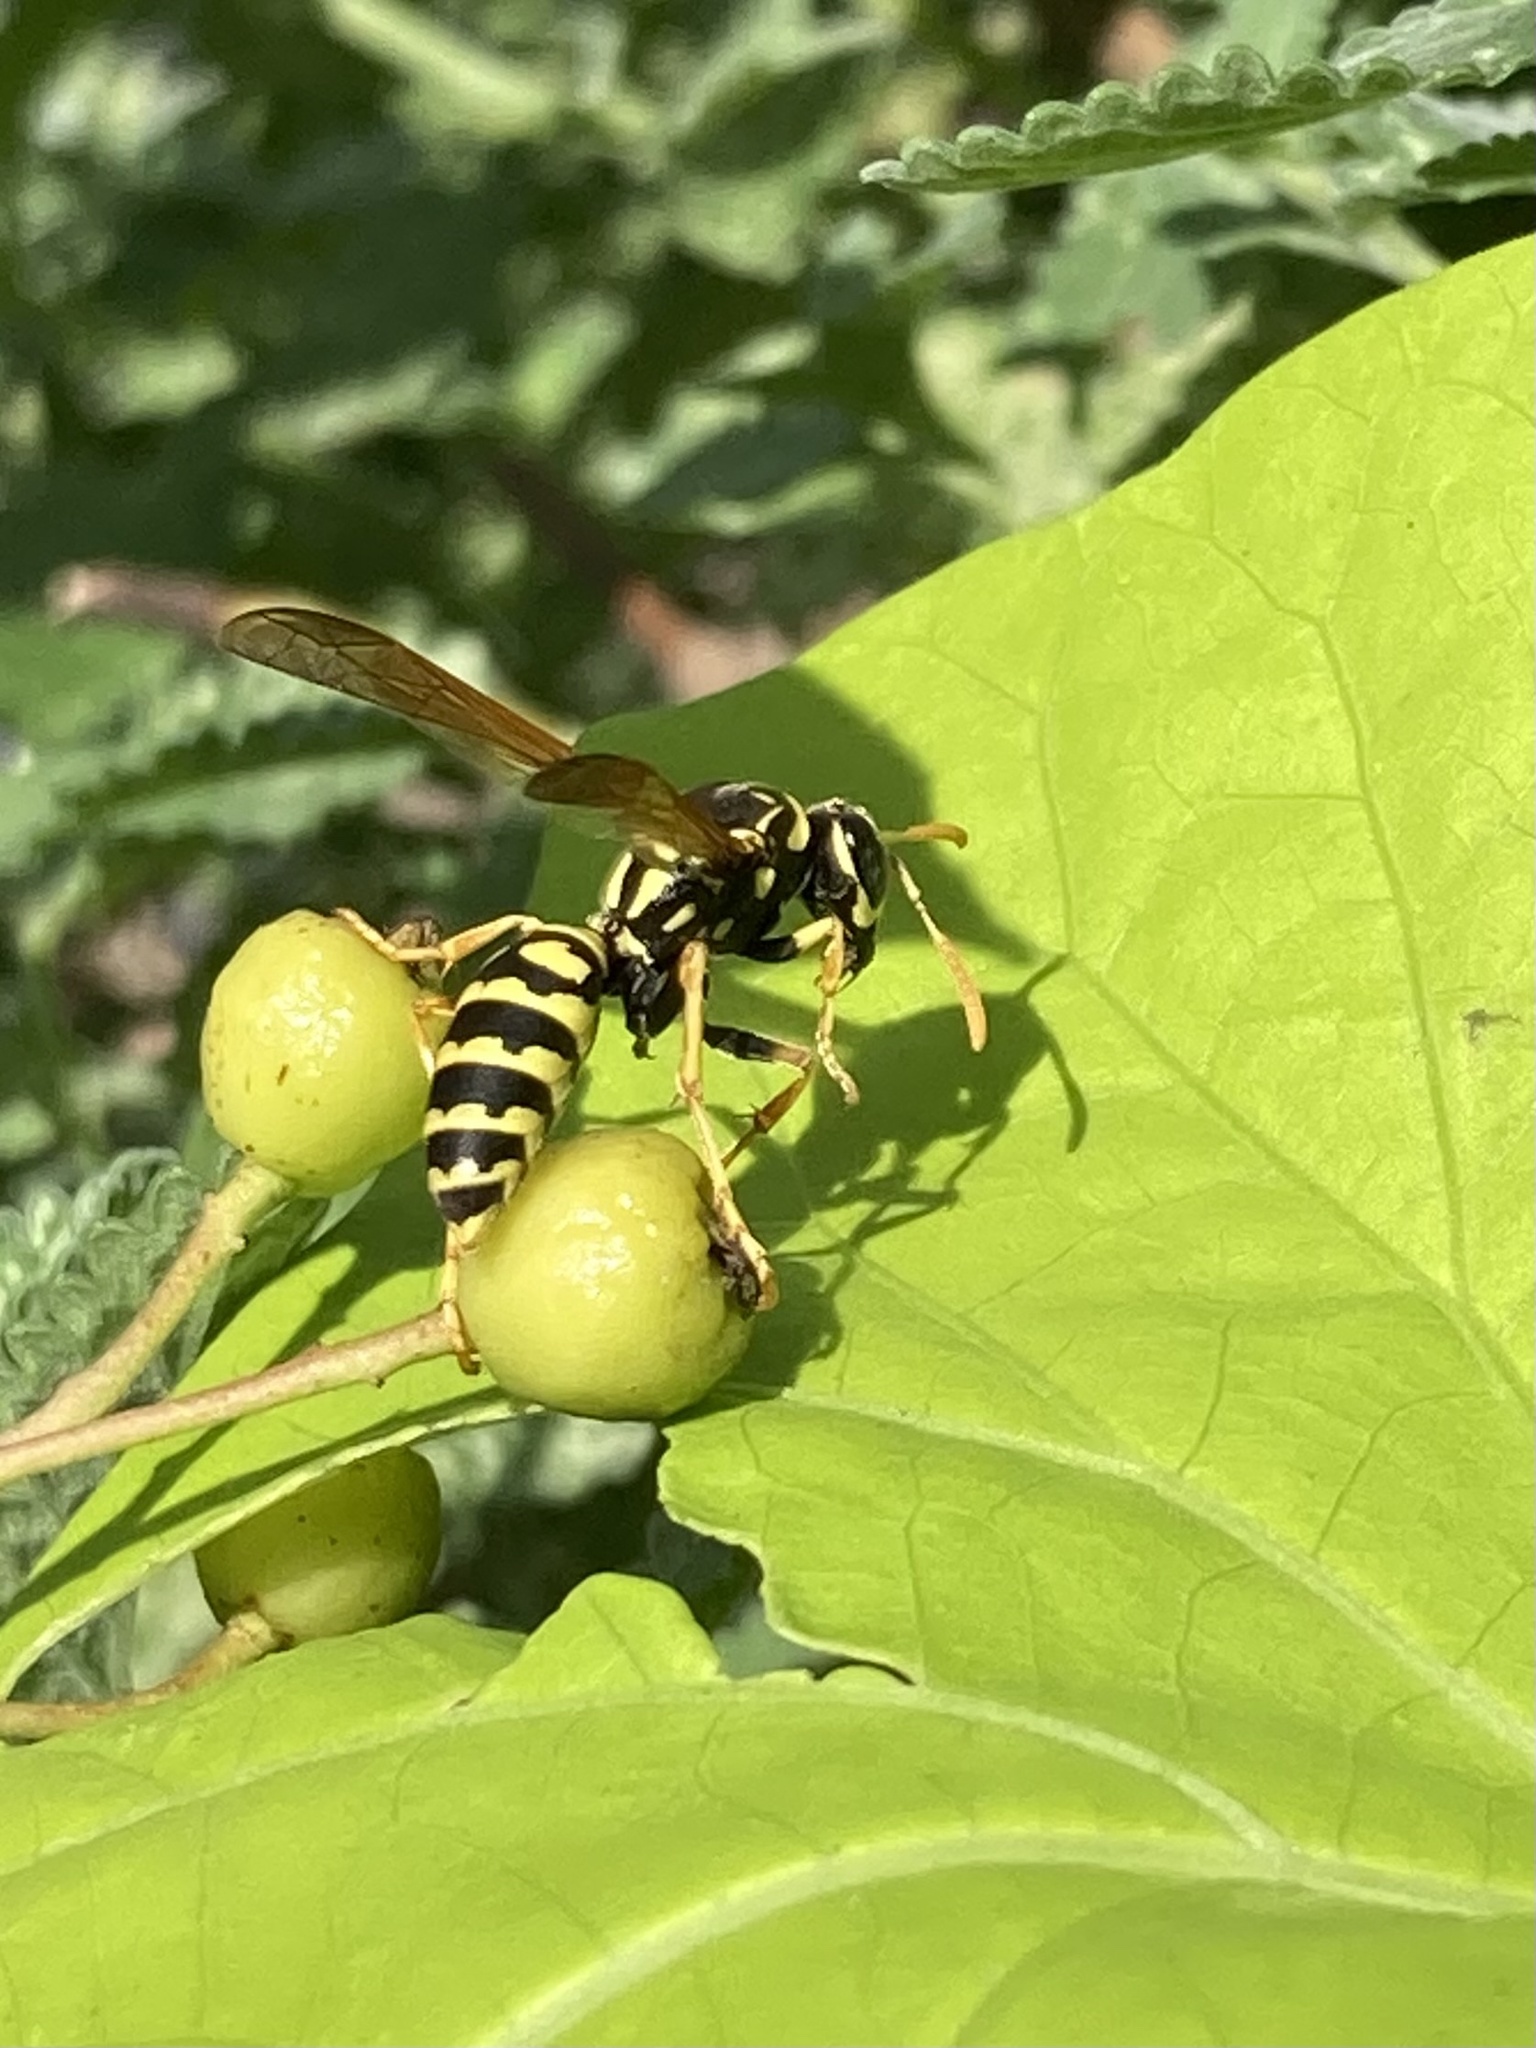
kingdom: Animalia
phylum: Arthropoda
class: Insecta
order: Hymenoptera
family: Eumenidae
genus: Polistes
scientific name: Polistes dominula
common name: Paper wasp
